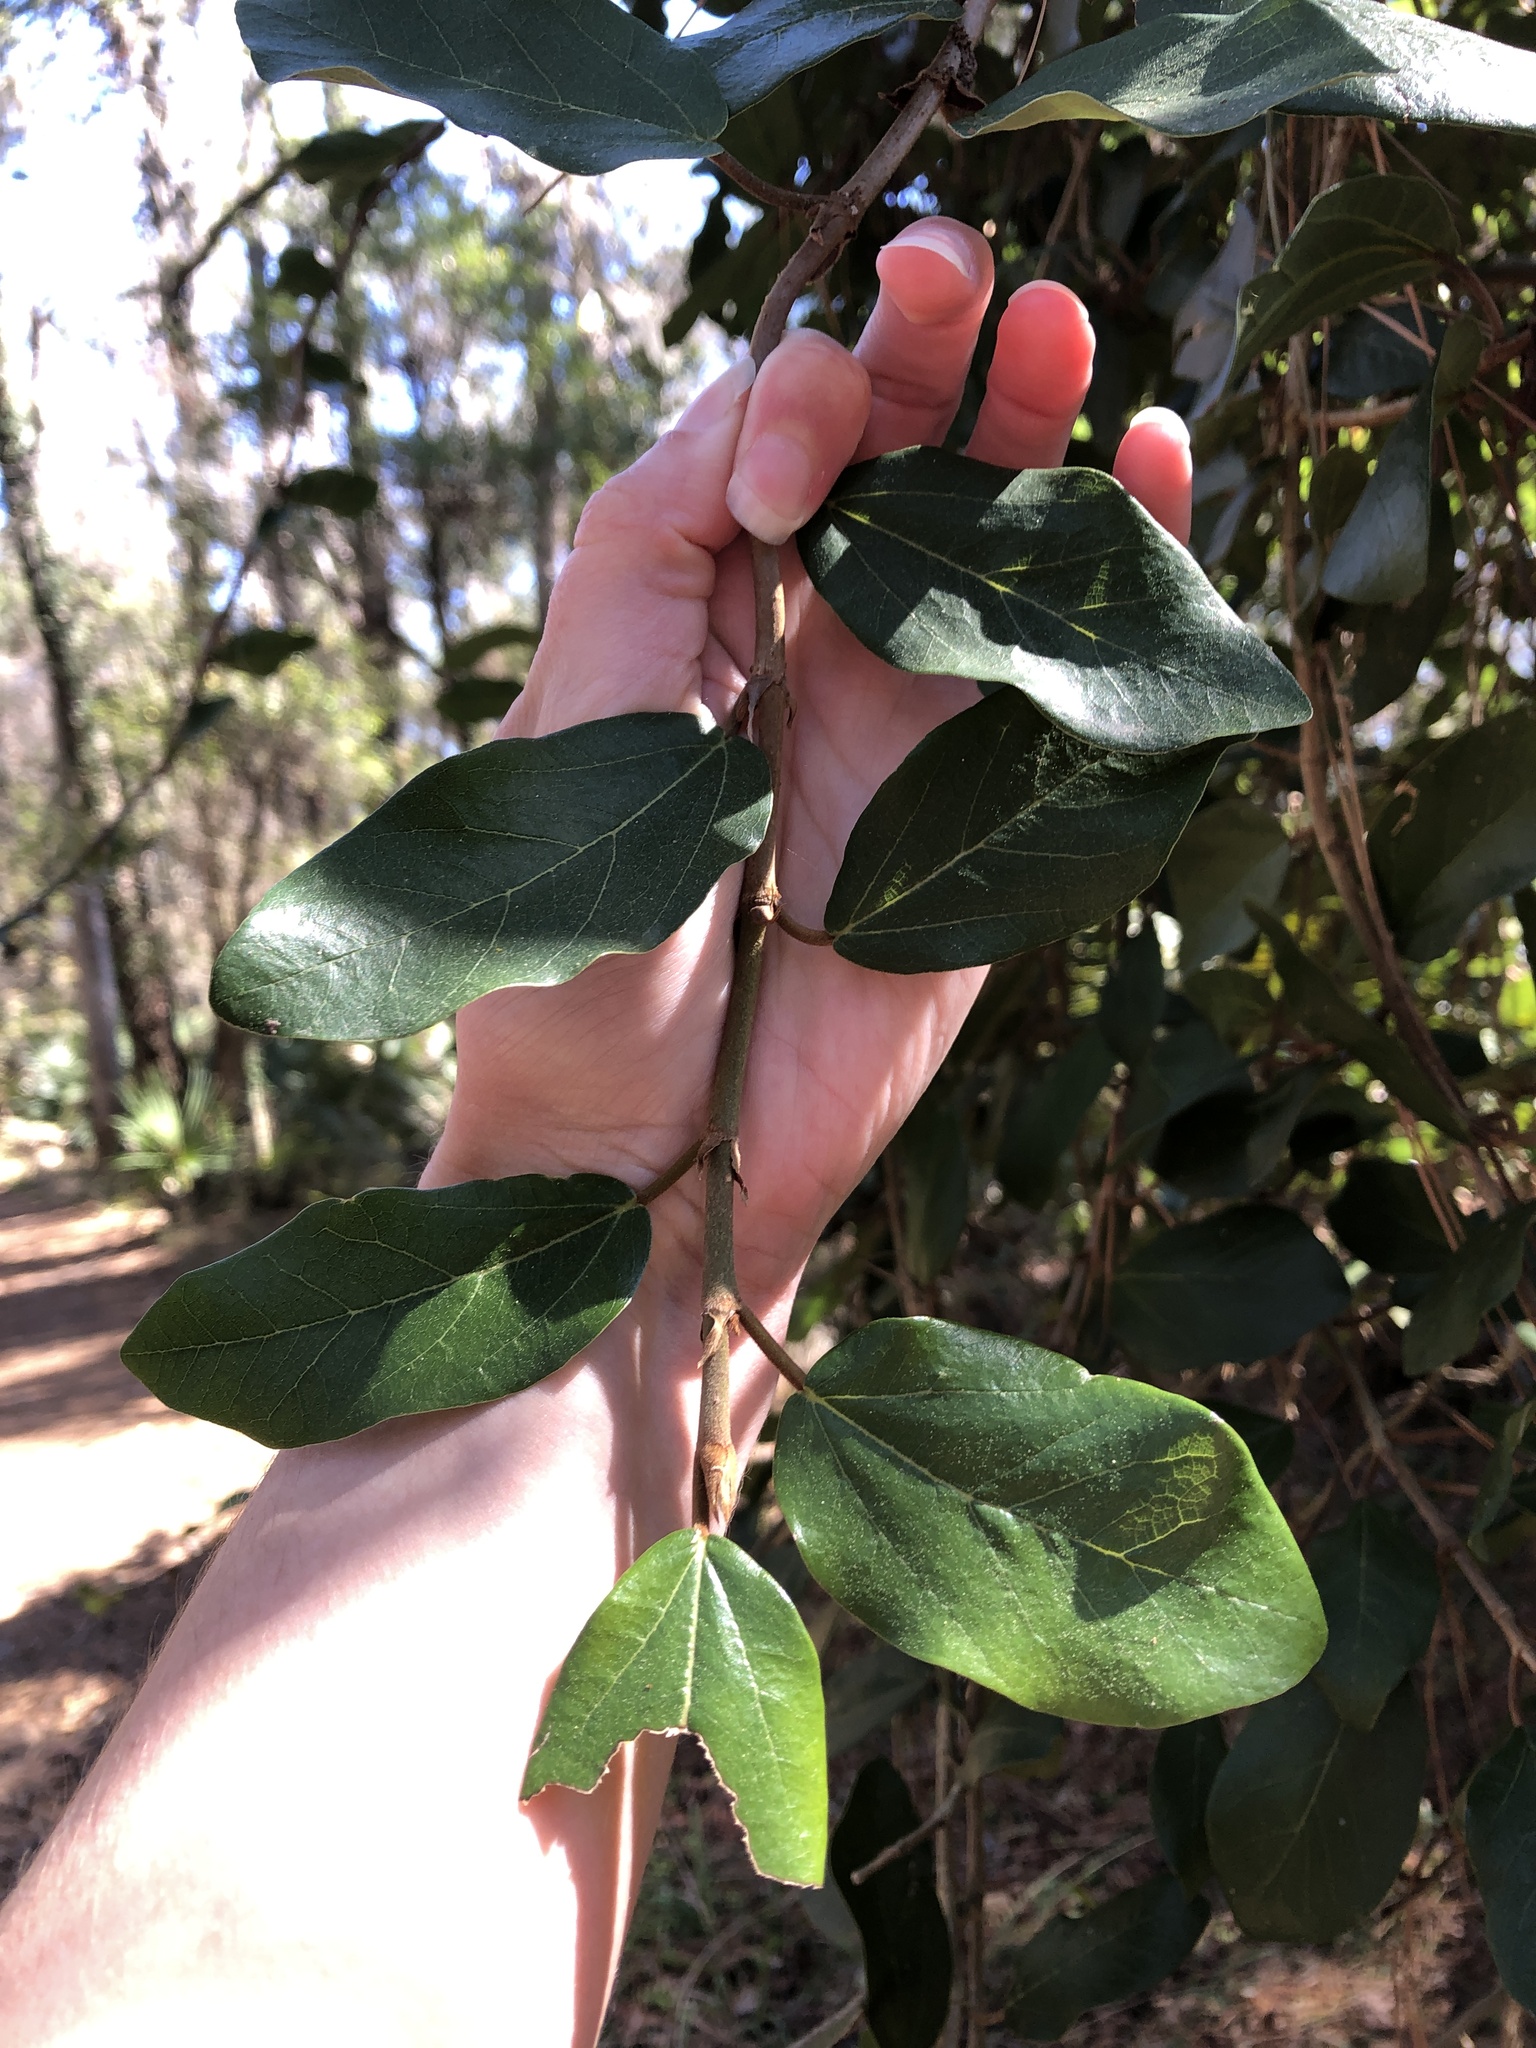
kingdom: Plantae
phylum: Tracheophyta
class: Magnoliopsida
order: Rosales
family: Moraceae
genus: Ficus
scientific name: Ficus pumila
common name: Climbingfig
